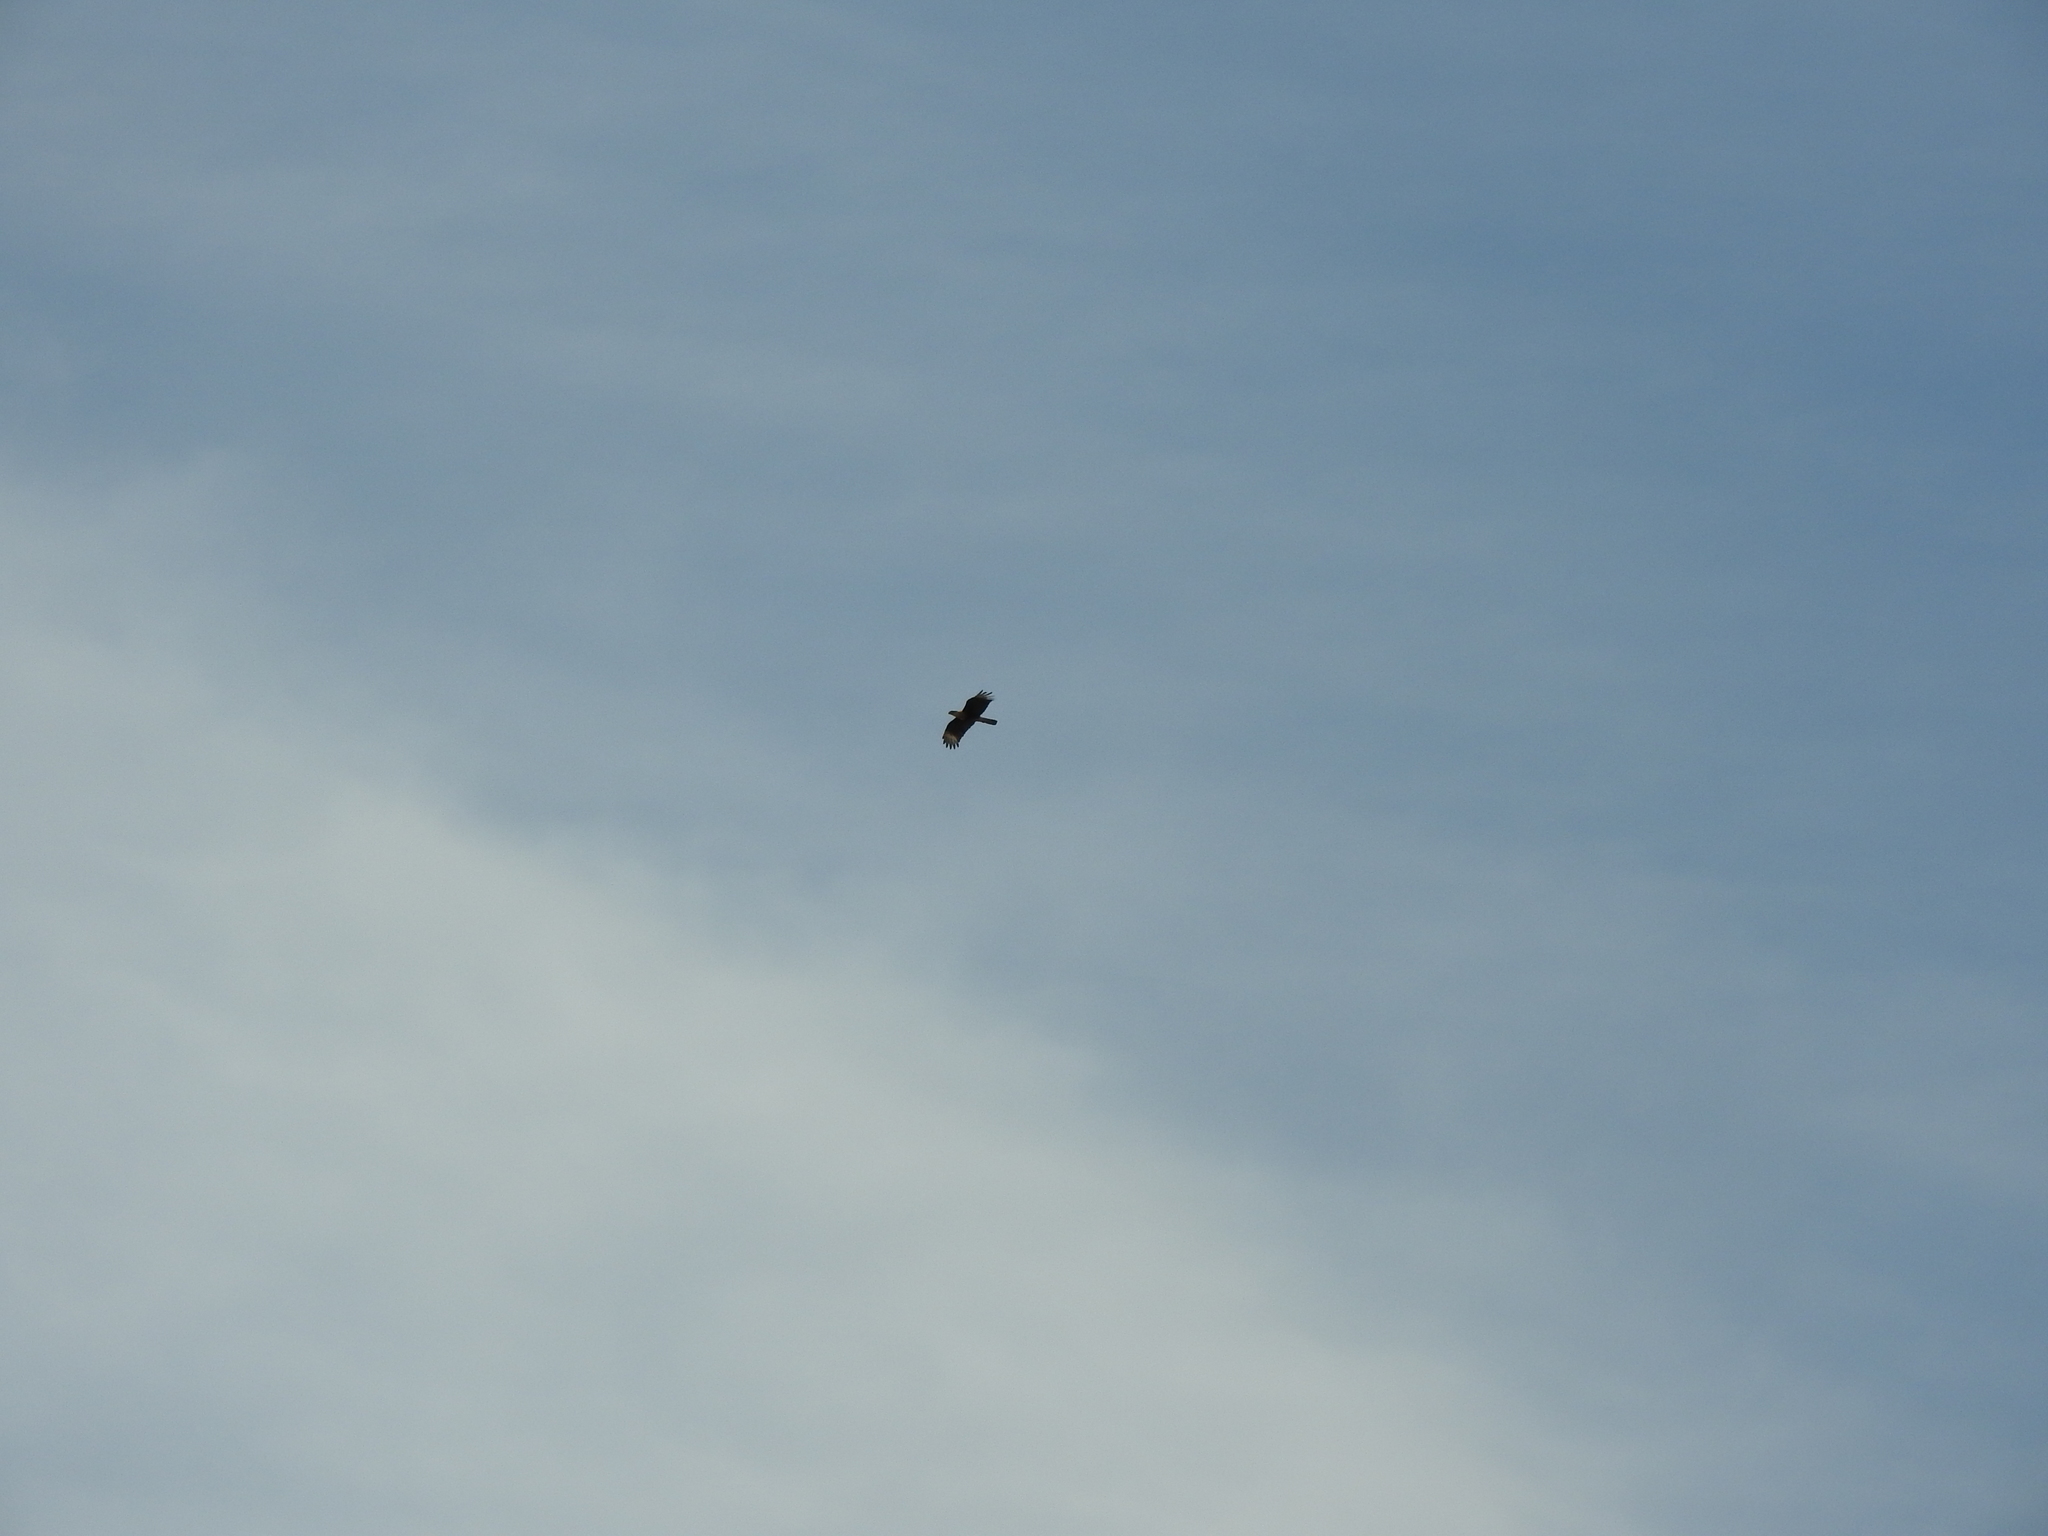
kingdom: Animalia
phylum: Chordata
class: Aves
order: Falconiformes
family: Falconidae
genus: Caracara
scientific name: Caracara plancus
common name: Southern caracara
